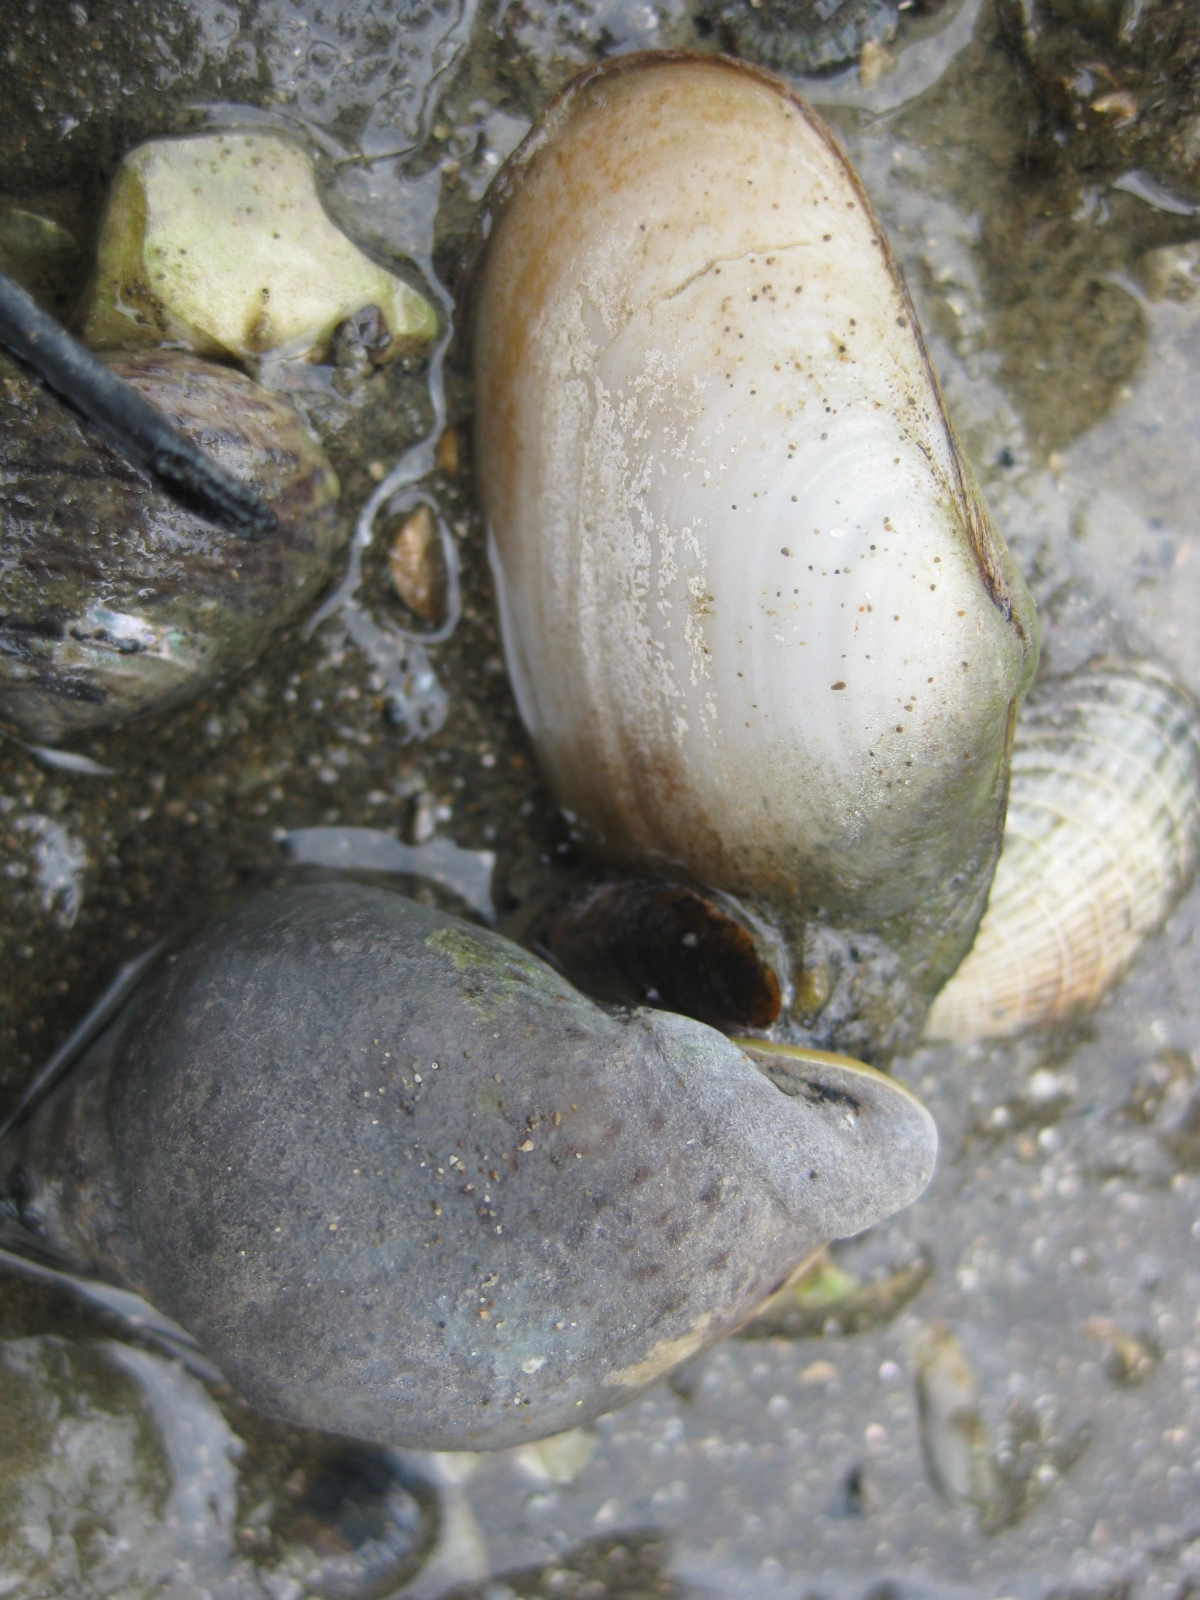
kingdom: Animalia
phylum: Mollusca
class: Bivalvia
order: Venerida
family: Mesodesmatidae
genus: Paphies
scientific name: Paphies australis
